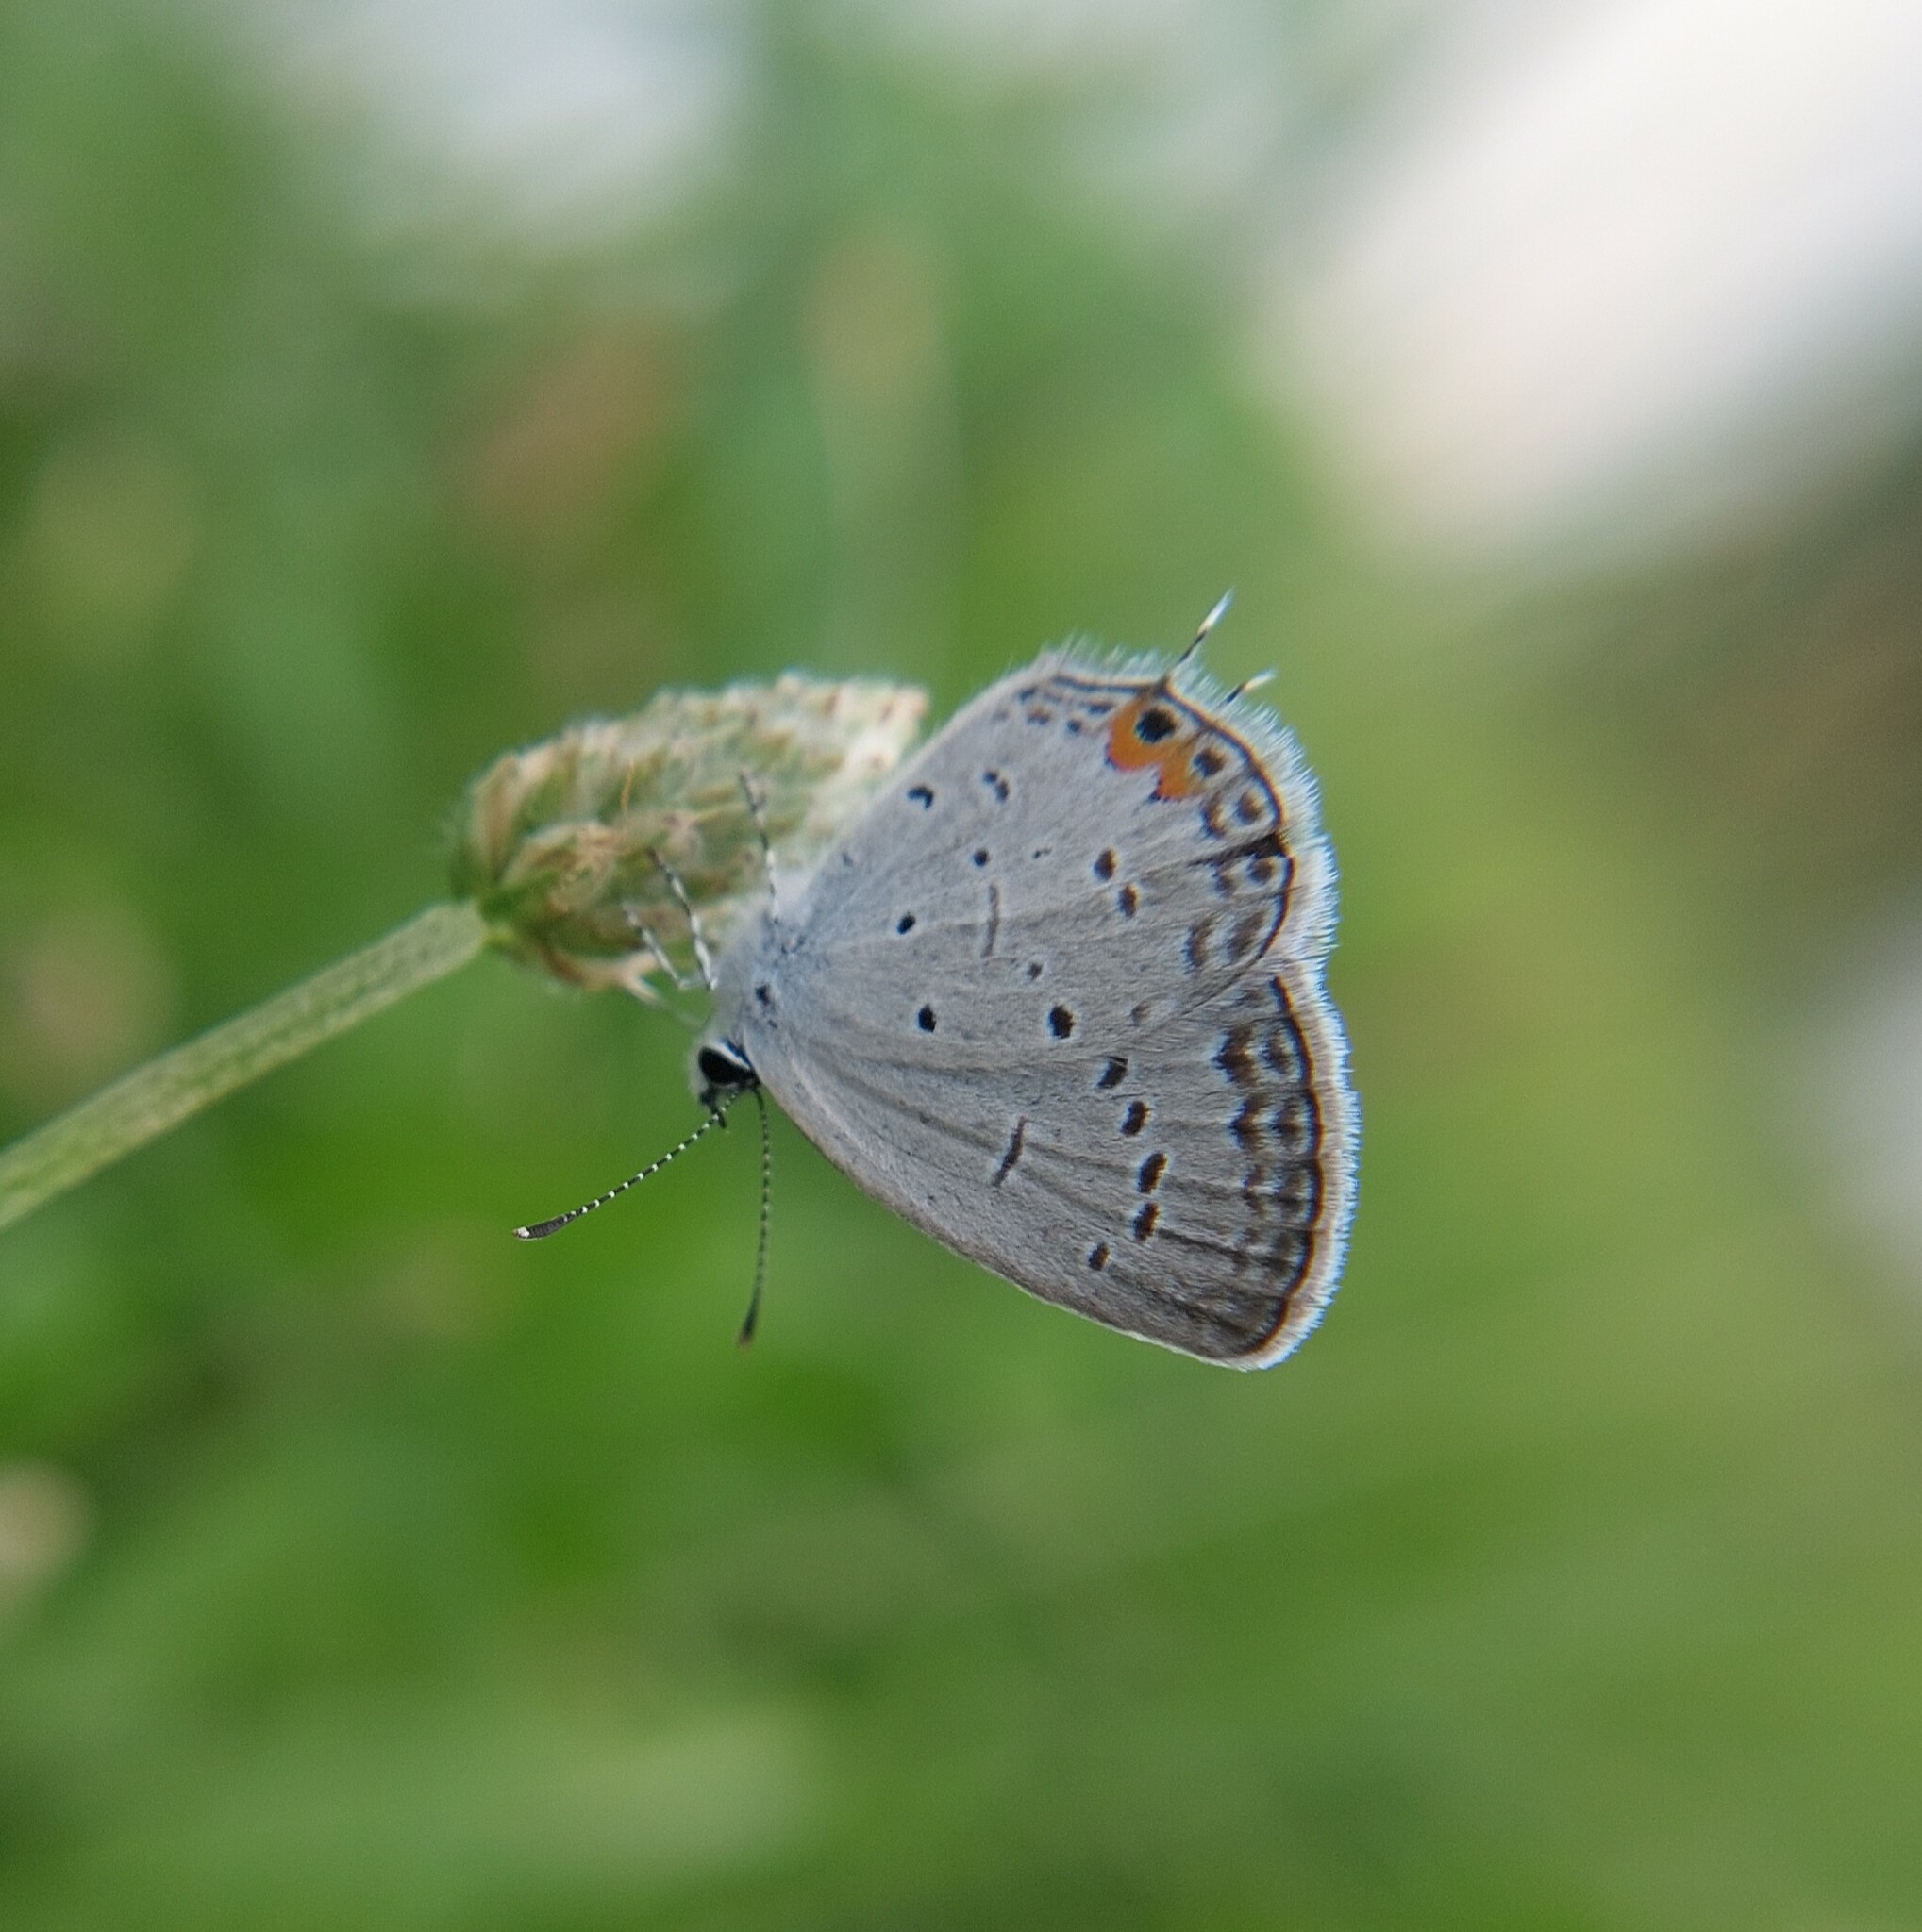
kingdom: Animalia
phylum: Arthropoda
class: Insecta
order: Lepidoptera
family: Lycaenidae
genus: Elkalyce
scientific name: Elkalyce comyntas
